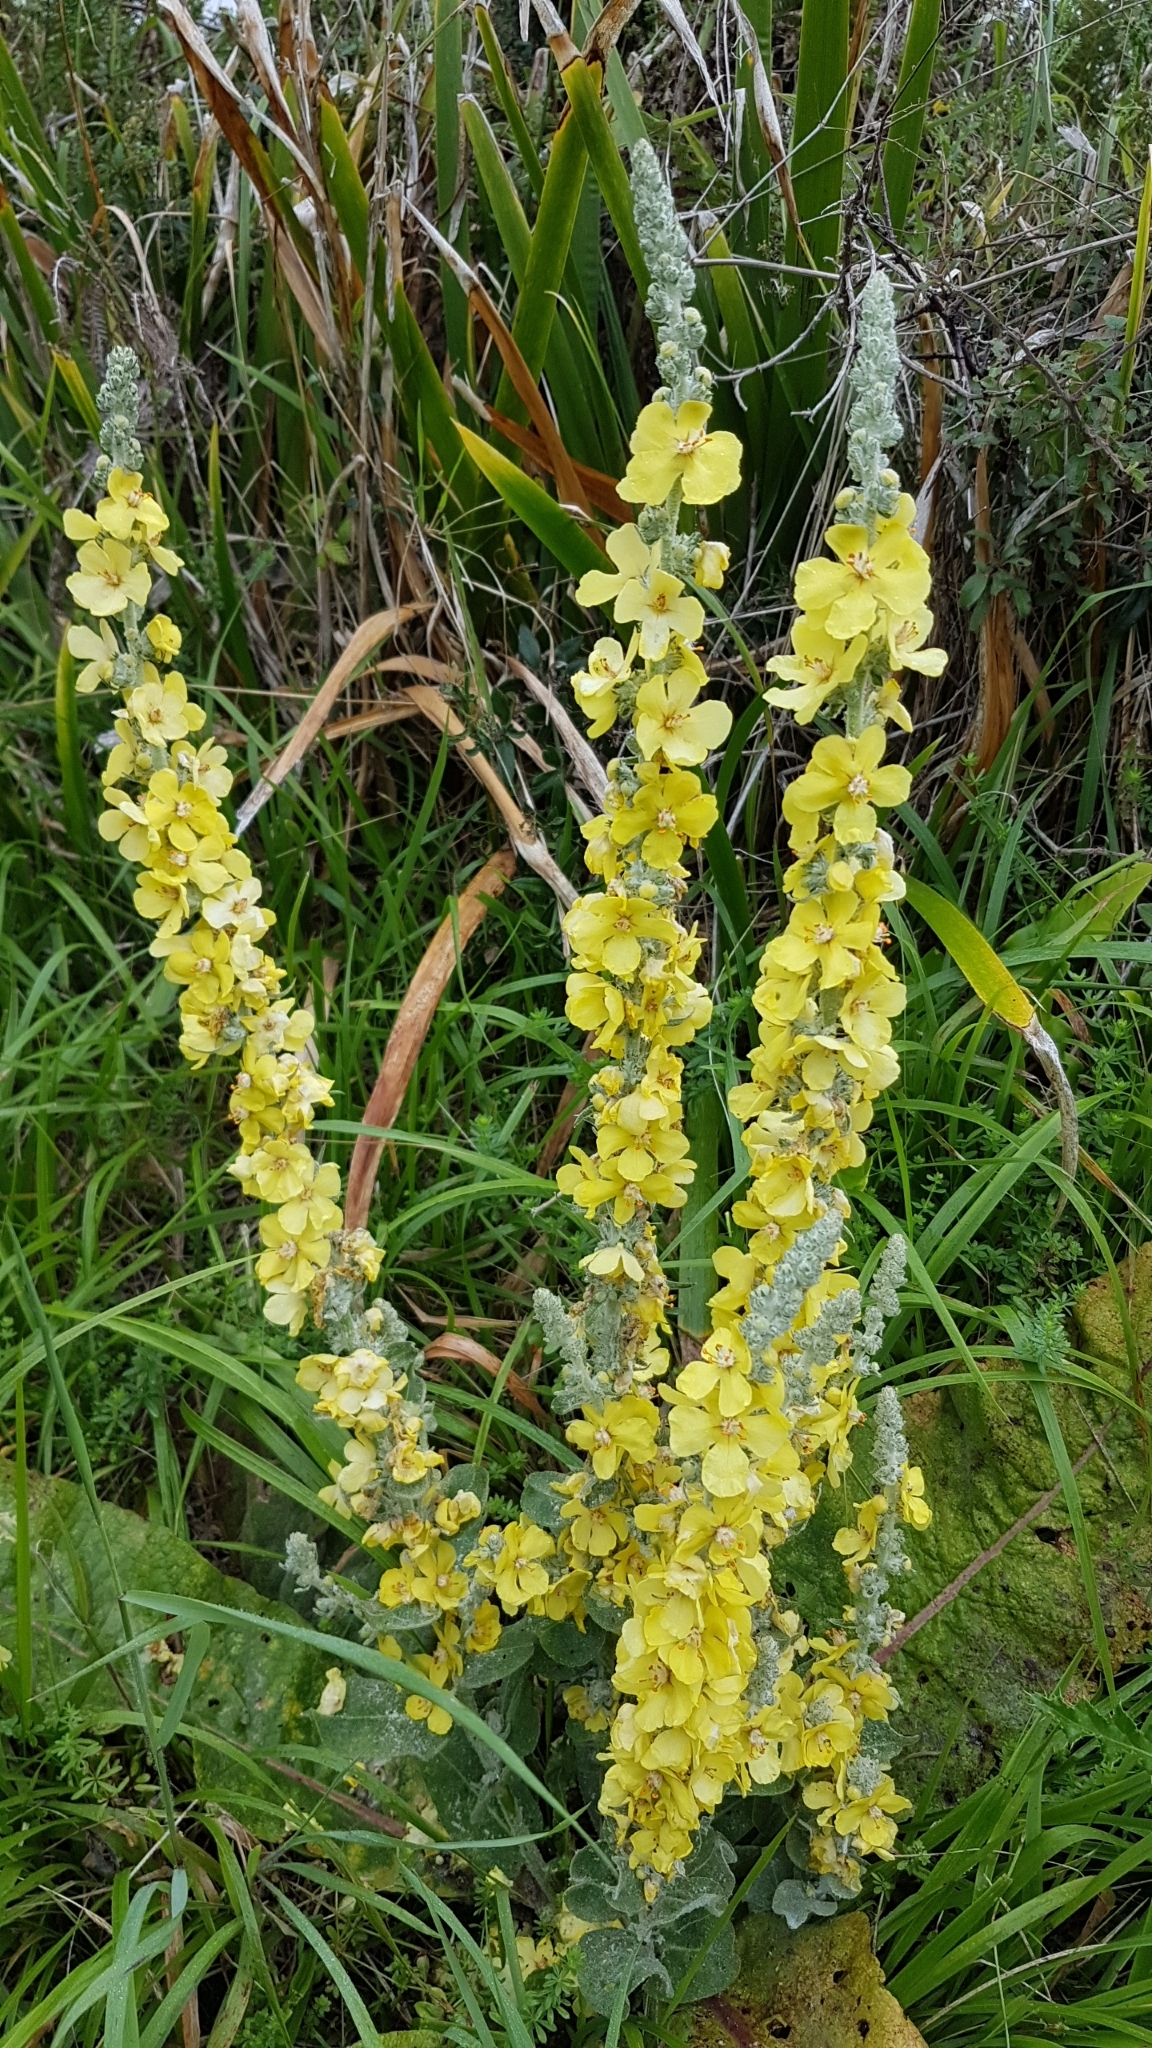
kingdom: Plantae
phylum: Tracheophyta
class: Magnoliopsida
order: Lamiales
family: Scrophulariaceae
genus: Verbascum
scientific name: Verbascum pulverulentum
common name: Broad-leaf mullein
